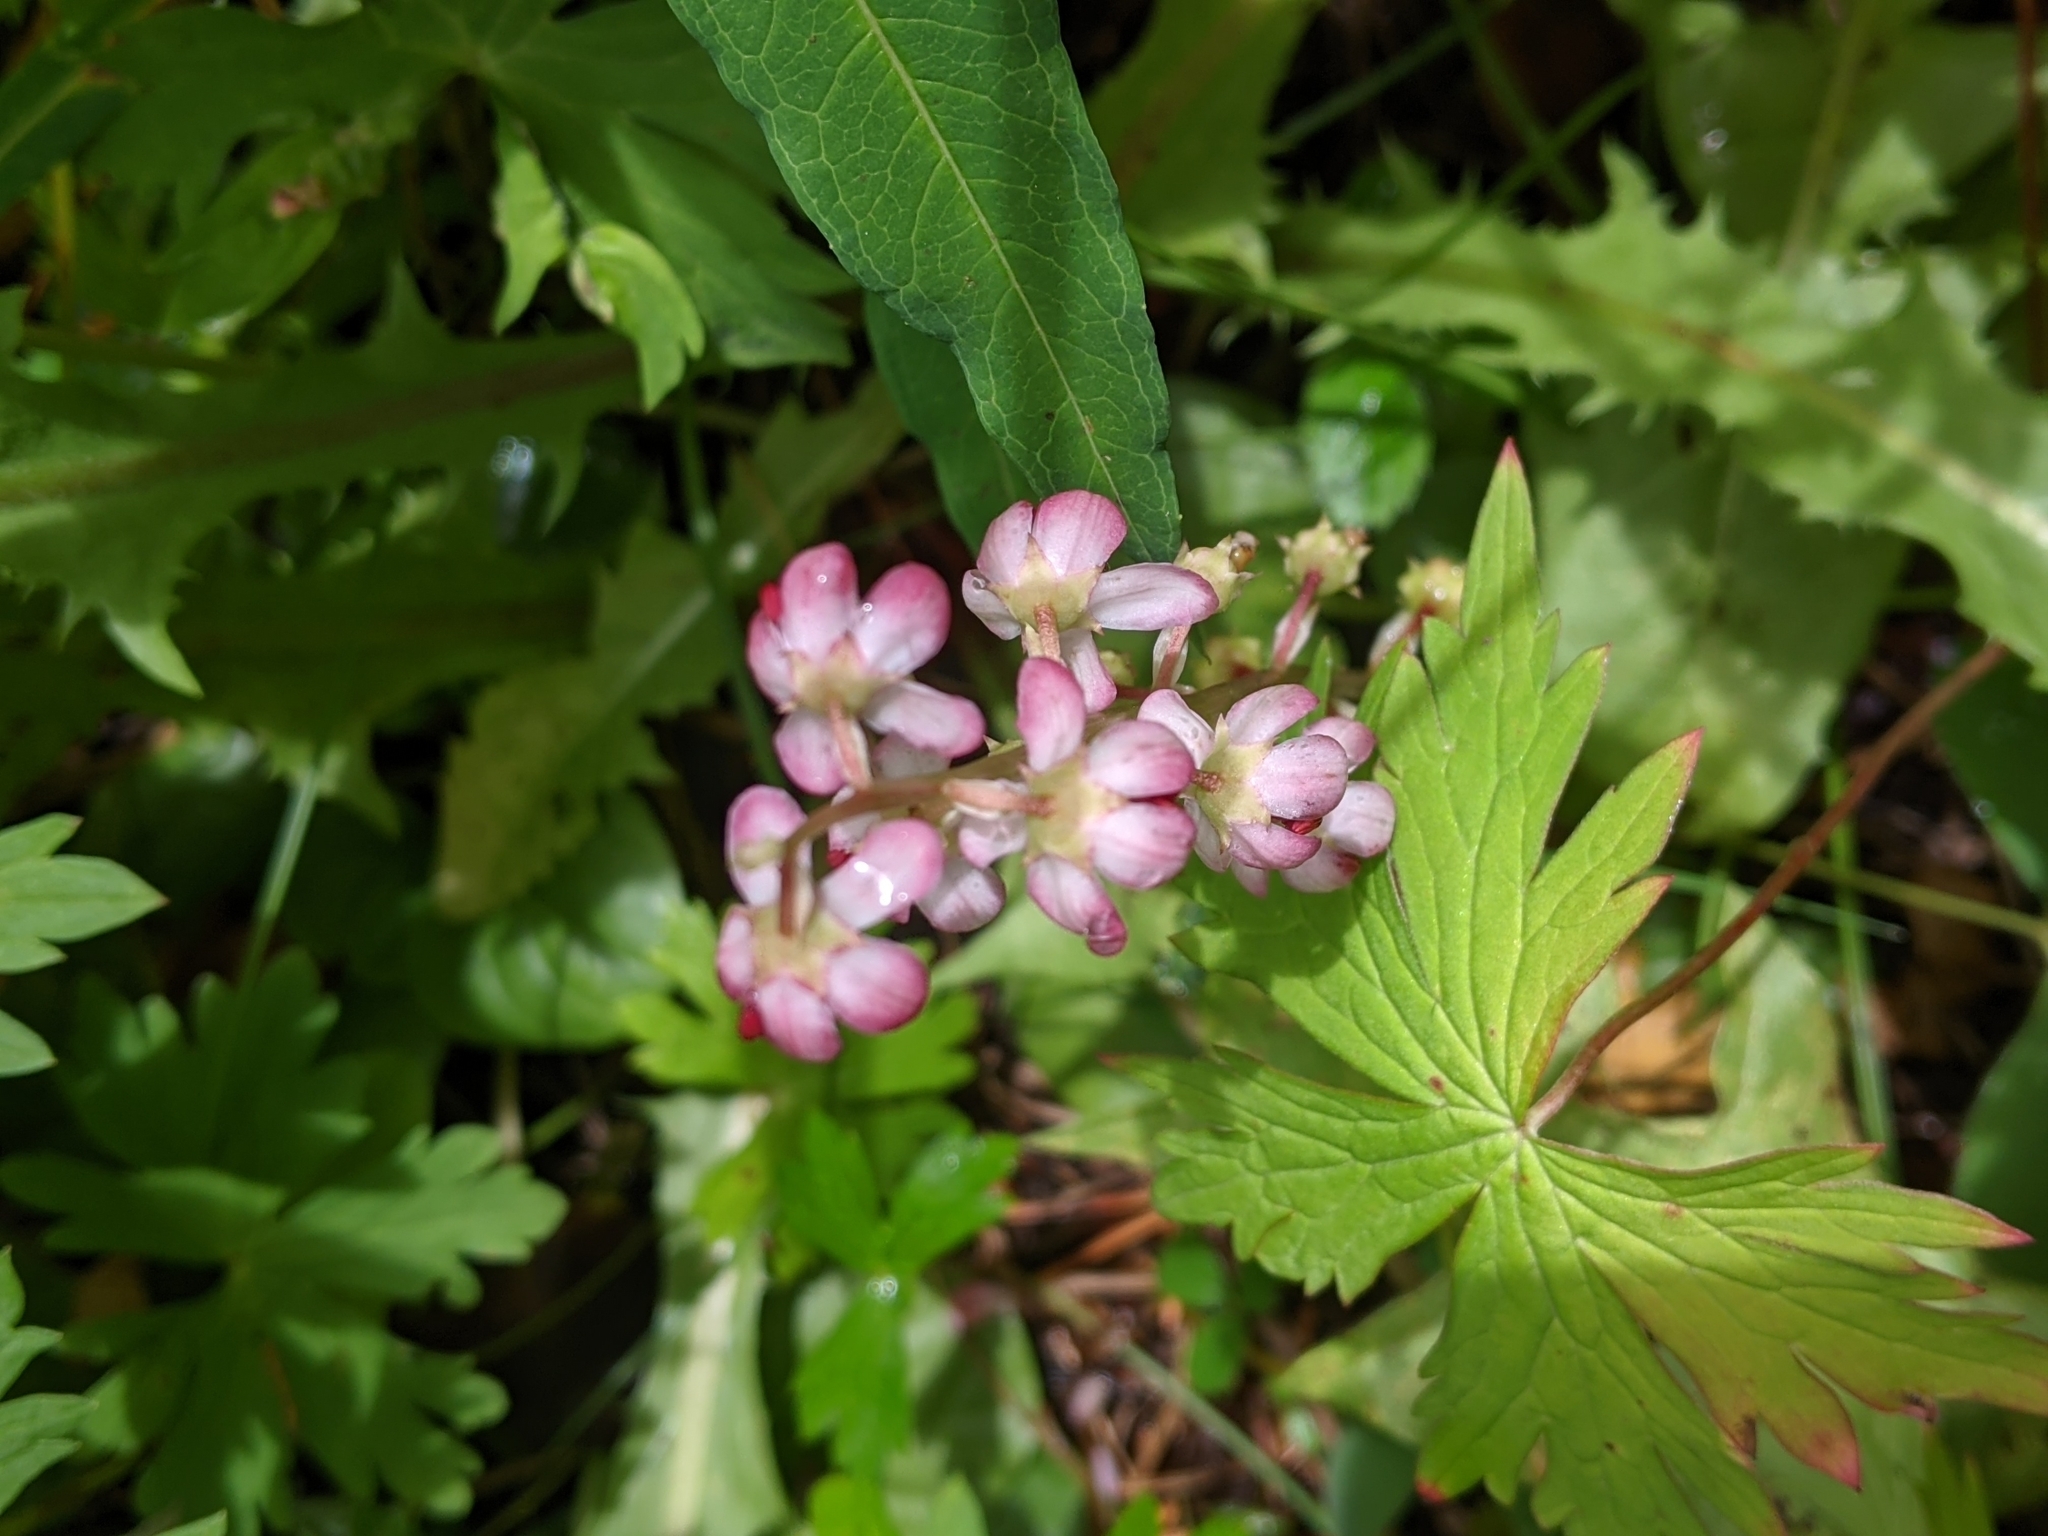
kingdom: Plantae
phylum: Tracheophyta
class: Magnoliopsida
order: Ericales
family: Ericaceae
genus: Pyrola
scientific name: Pyrola asarifolia
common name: Bog wintergreen
